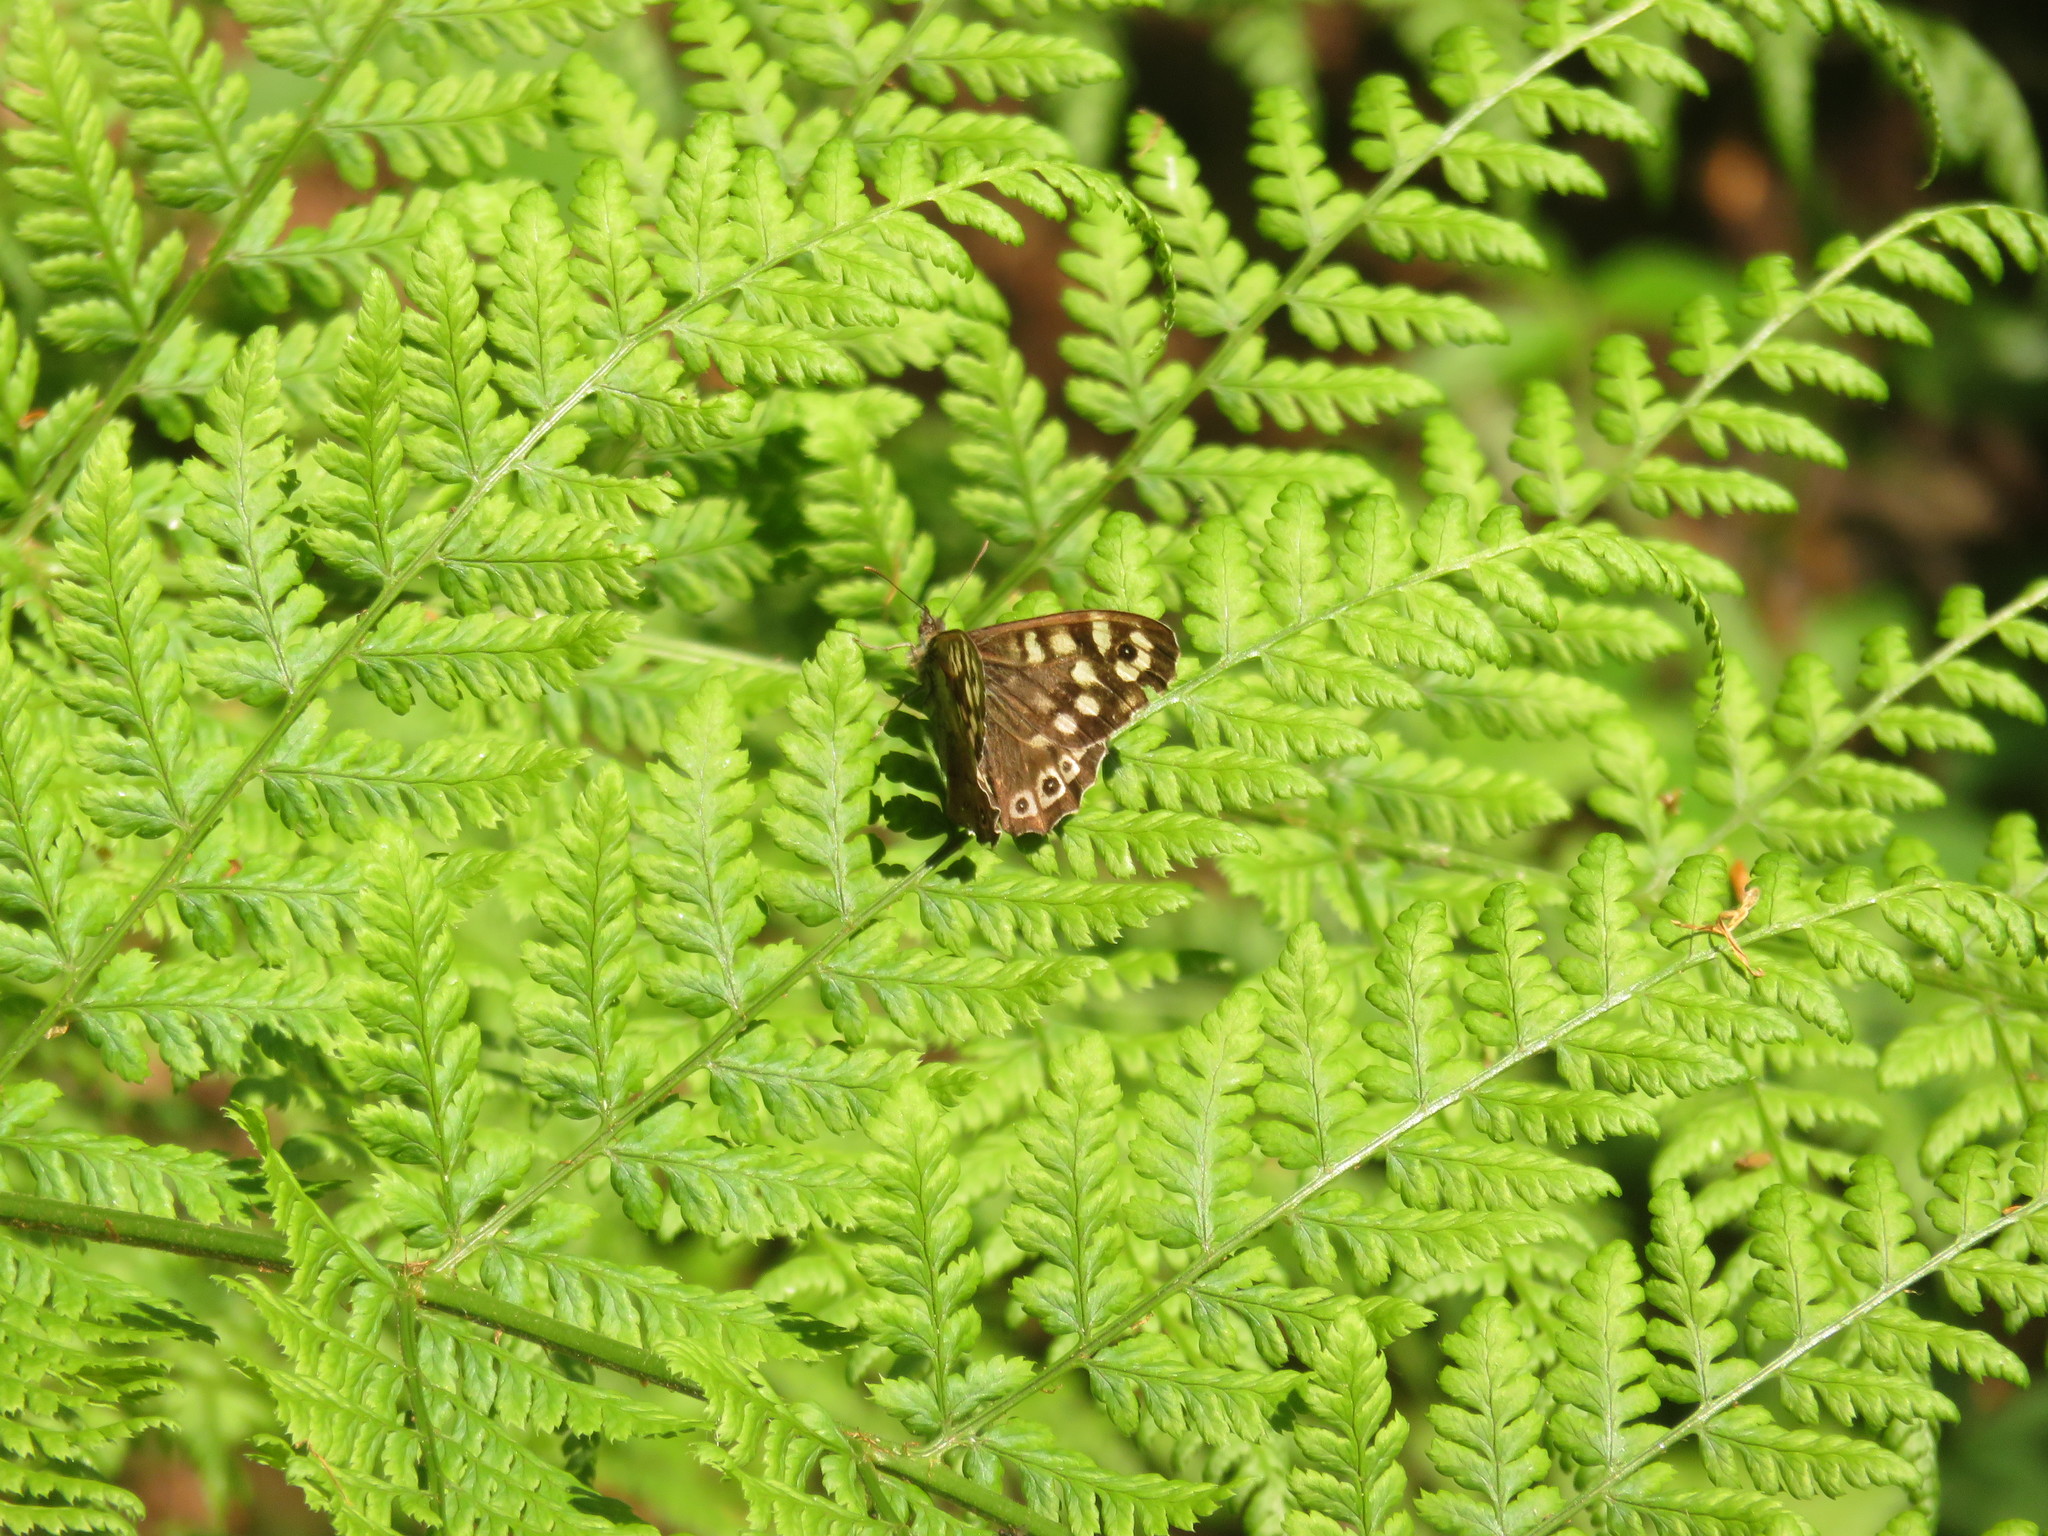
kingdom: Animalia
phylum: Arthropoda
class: Insecta
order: Lepidoptera
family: Nymphalidae
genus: Pararge
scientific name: Pararge aegeria
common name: Speckled wood
